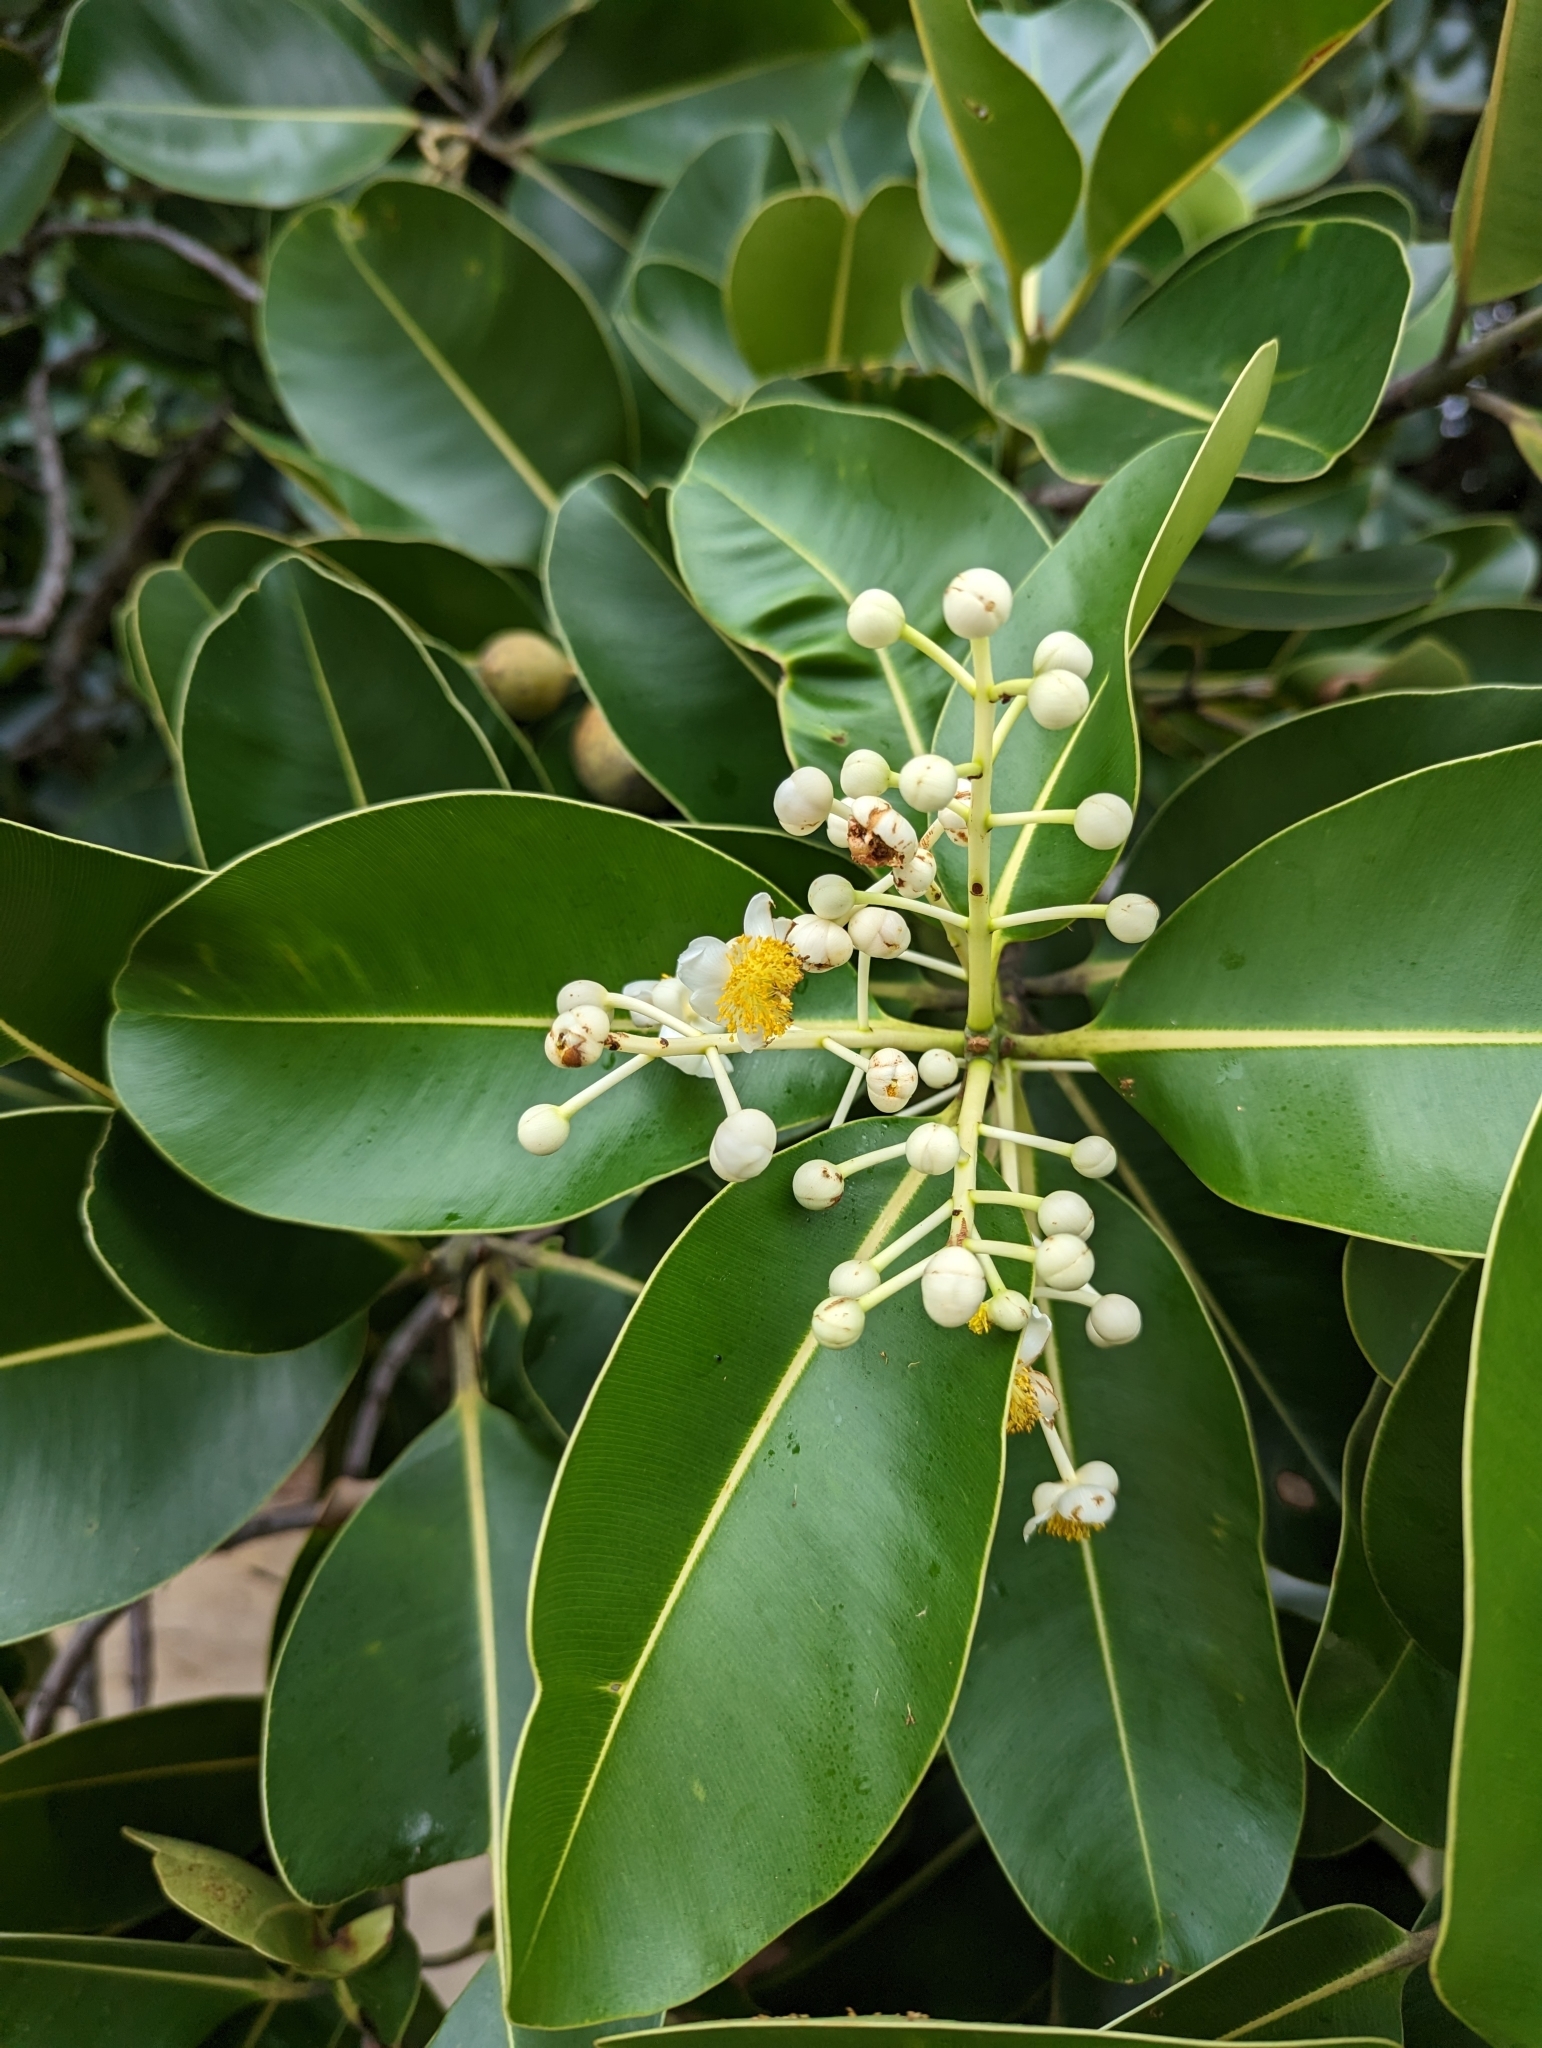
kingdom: Plantae
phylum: Tracheophyta
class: Magnoliopsida
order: Malpighiales
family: Calophyllaceae
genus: Calophyllum
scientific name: Calophyllum inophyllum
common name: Alexandrian laurel
